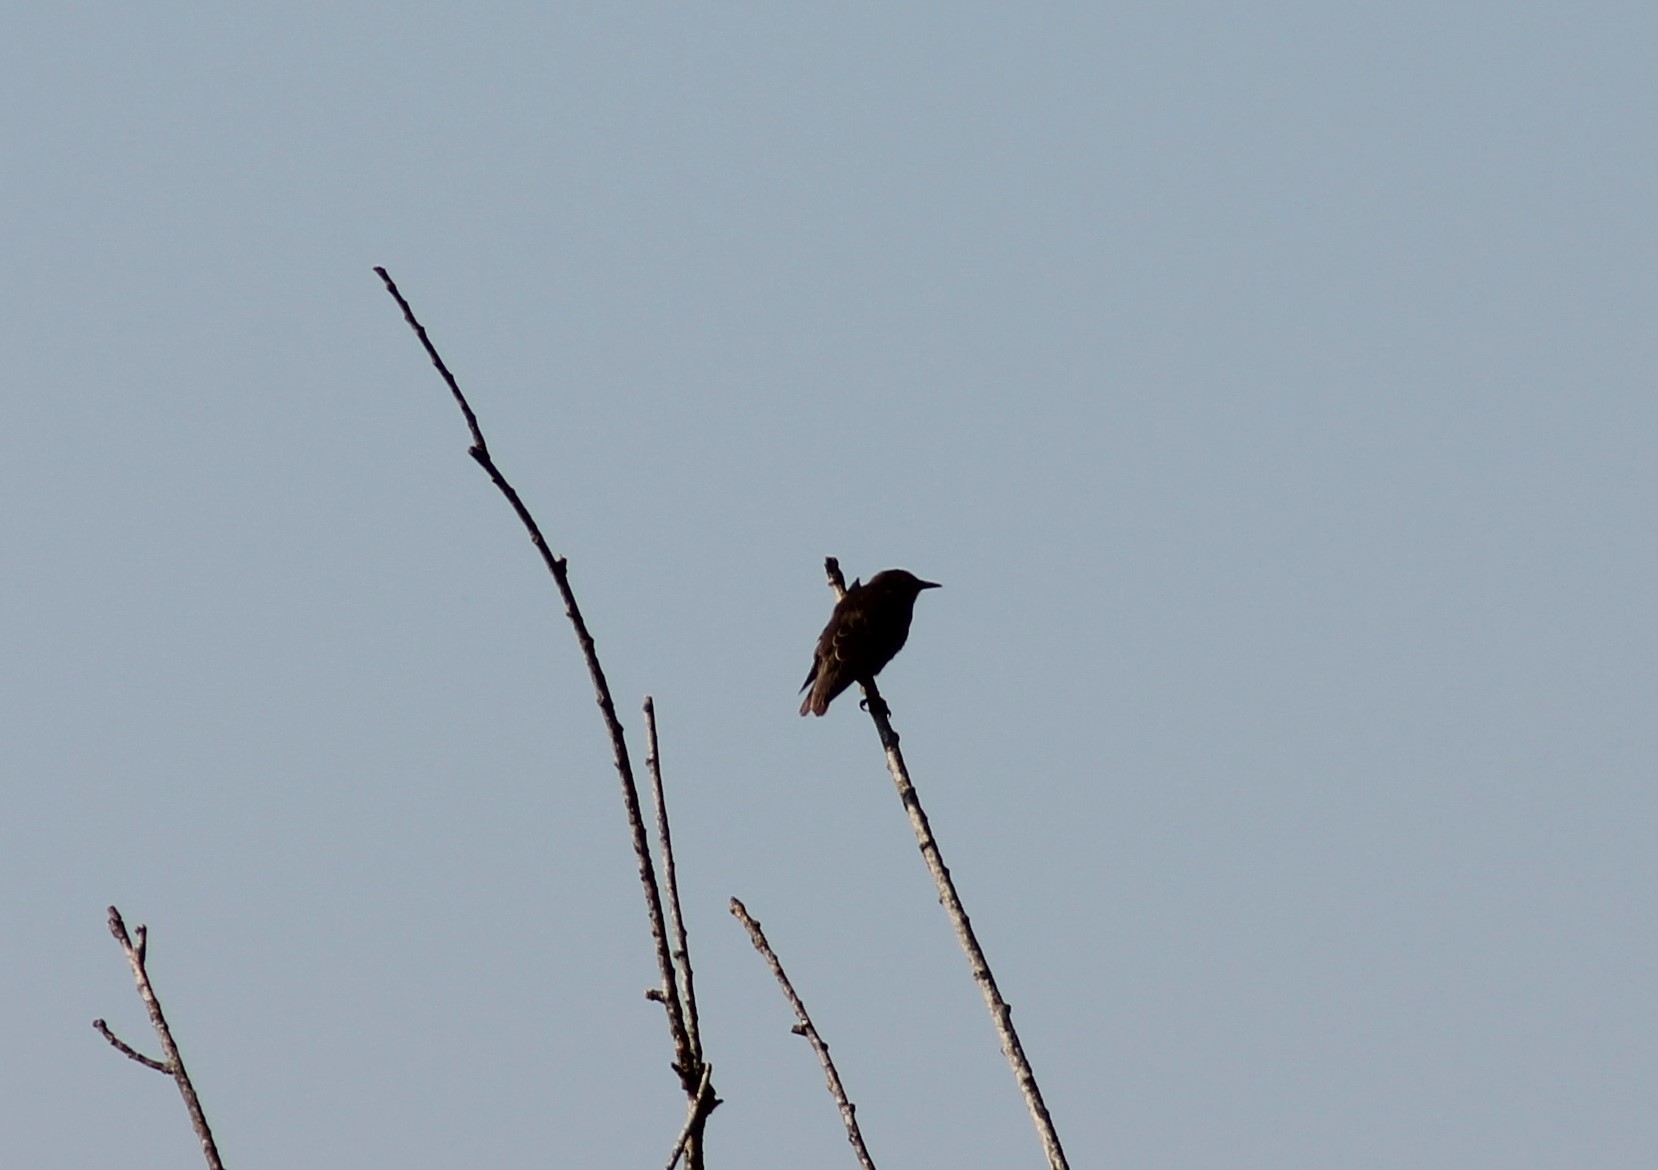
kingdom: Animalia
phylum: Chordata
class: Aves
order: Passeriformes
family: Sturnidae
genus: Sturnus
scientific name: Sturnus vulgaris
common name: Common starling
